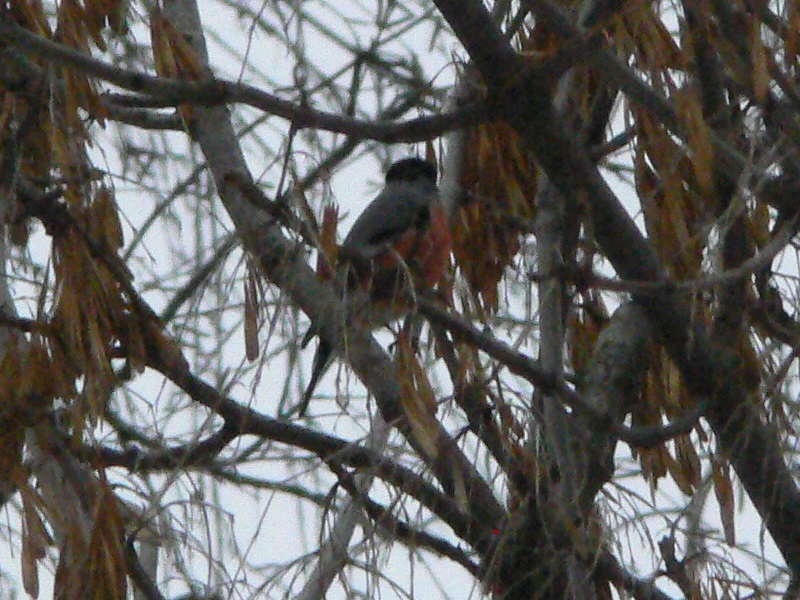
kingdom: Animalia
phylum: Chordata
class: Aves
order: Passeriformes
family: Fringillidae
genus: Pyrrhula
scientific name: Pyrrhula pyrrhula
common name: Eurasian bullfinch
